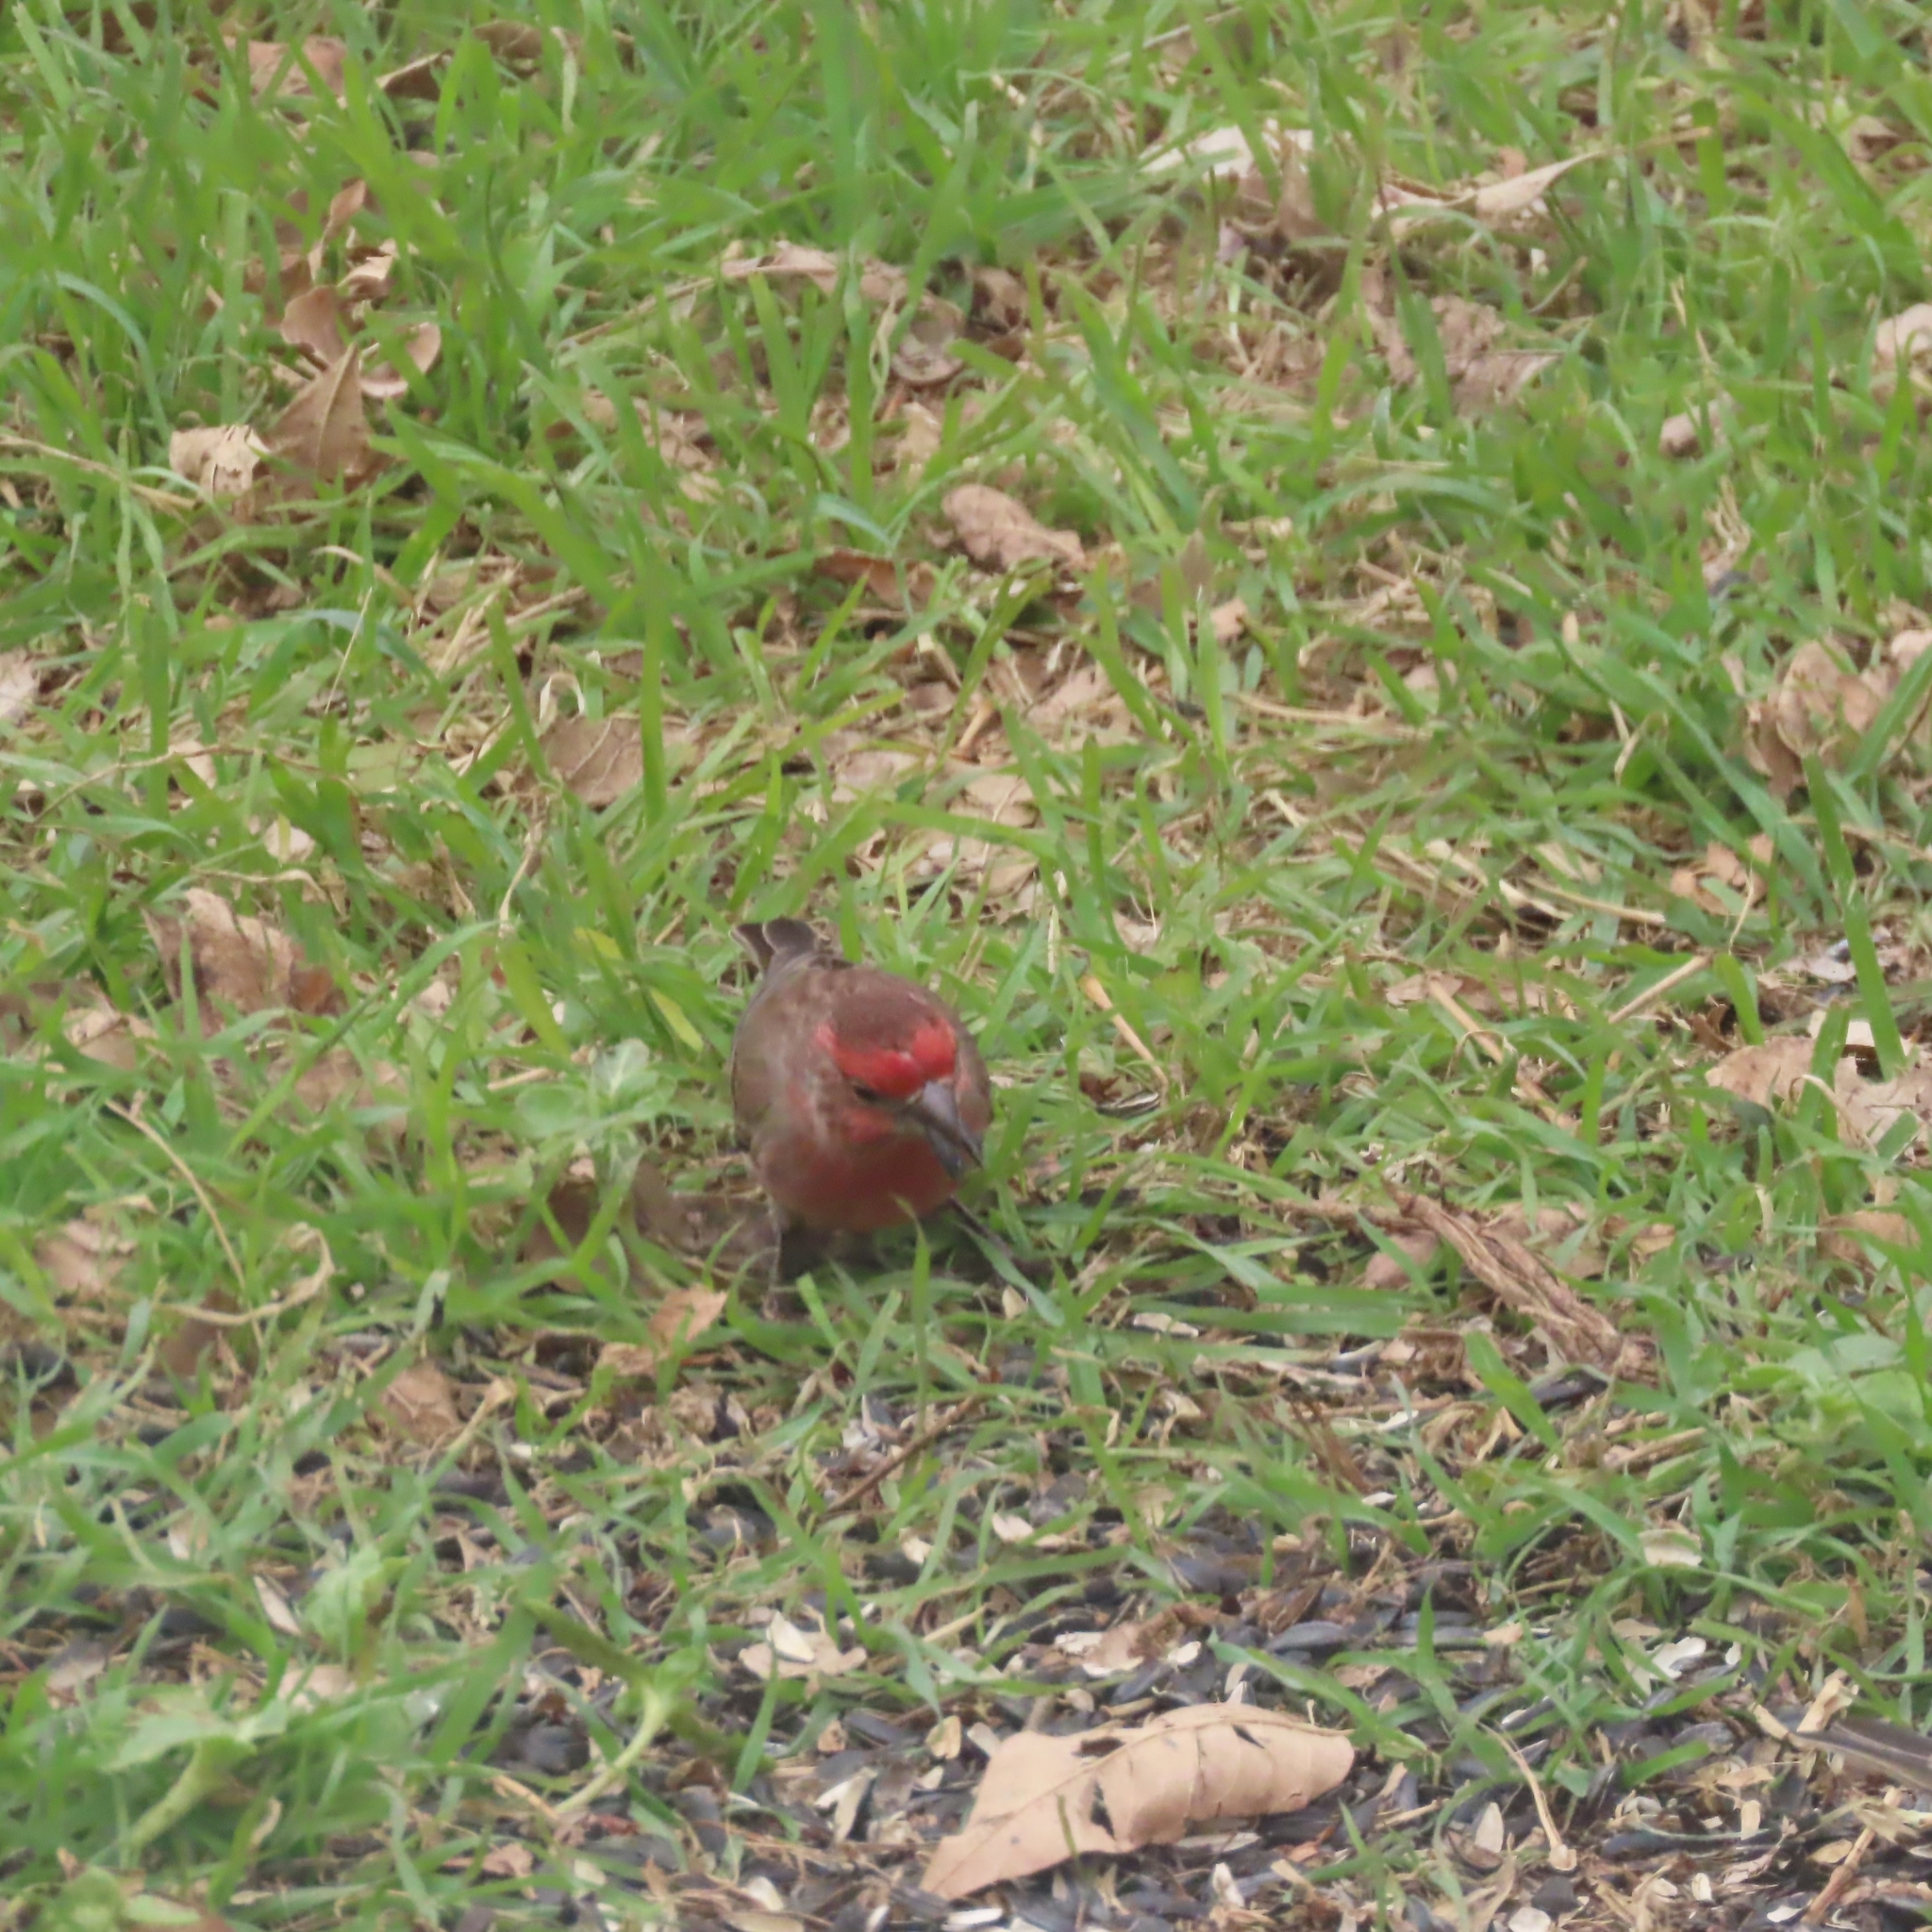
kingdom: Animalia
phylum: Chordata
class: Aves
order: Passeriformes
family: Fringillidae
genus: Haemorhous
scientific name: Haemorhous mexicanus
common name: House finch
